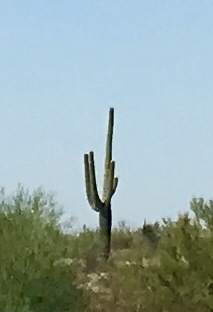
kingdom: Plantae
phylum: Tracheophyta
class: Magnoliopsida
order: Caryophyllales
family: Cactaceae
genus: Carnegiea
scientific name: Carnegiea gigantea
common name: Saguaro
